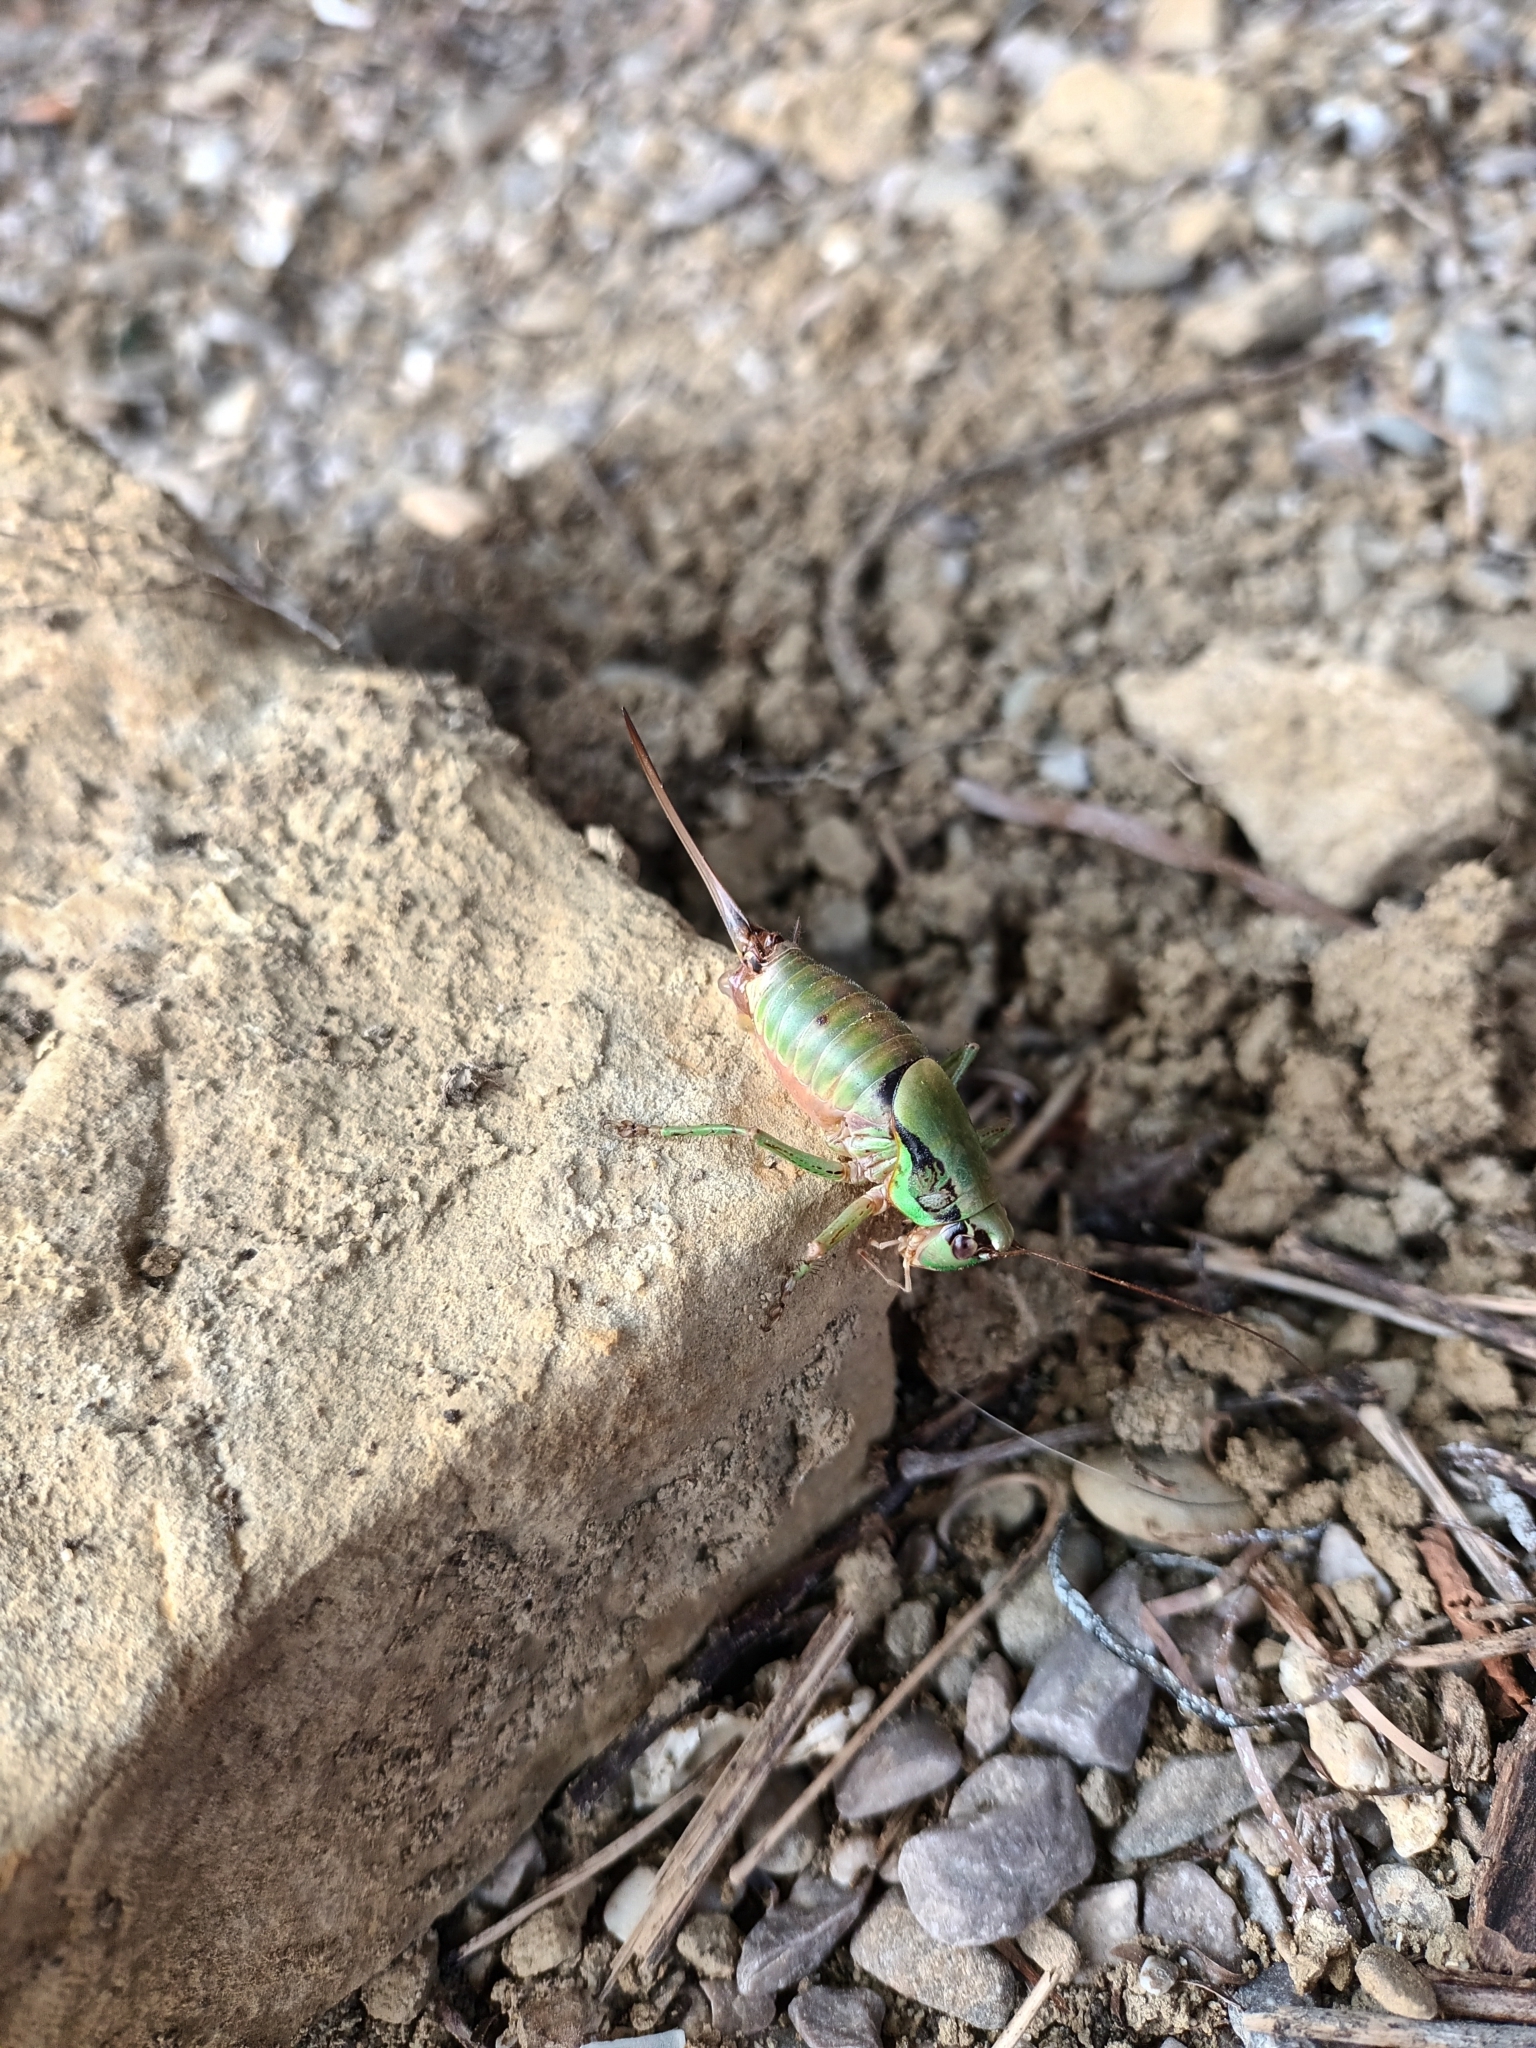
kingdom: Animalia
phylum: Arthropoda
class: Insecta
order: Orthoptera
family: Tettigoniidae
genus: Eupholidoptera
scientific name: Eupholidoptera schmidti
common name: Schmidt's marbled bush-cricket
